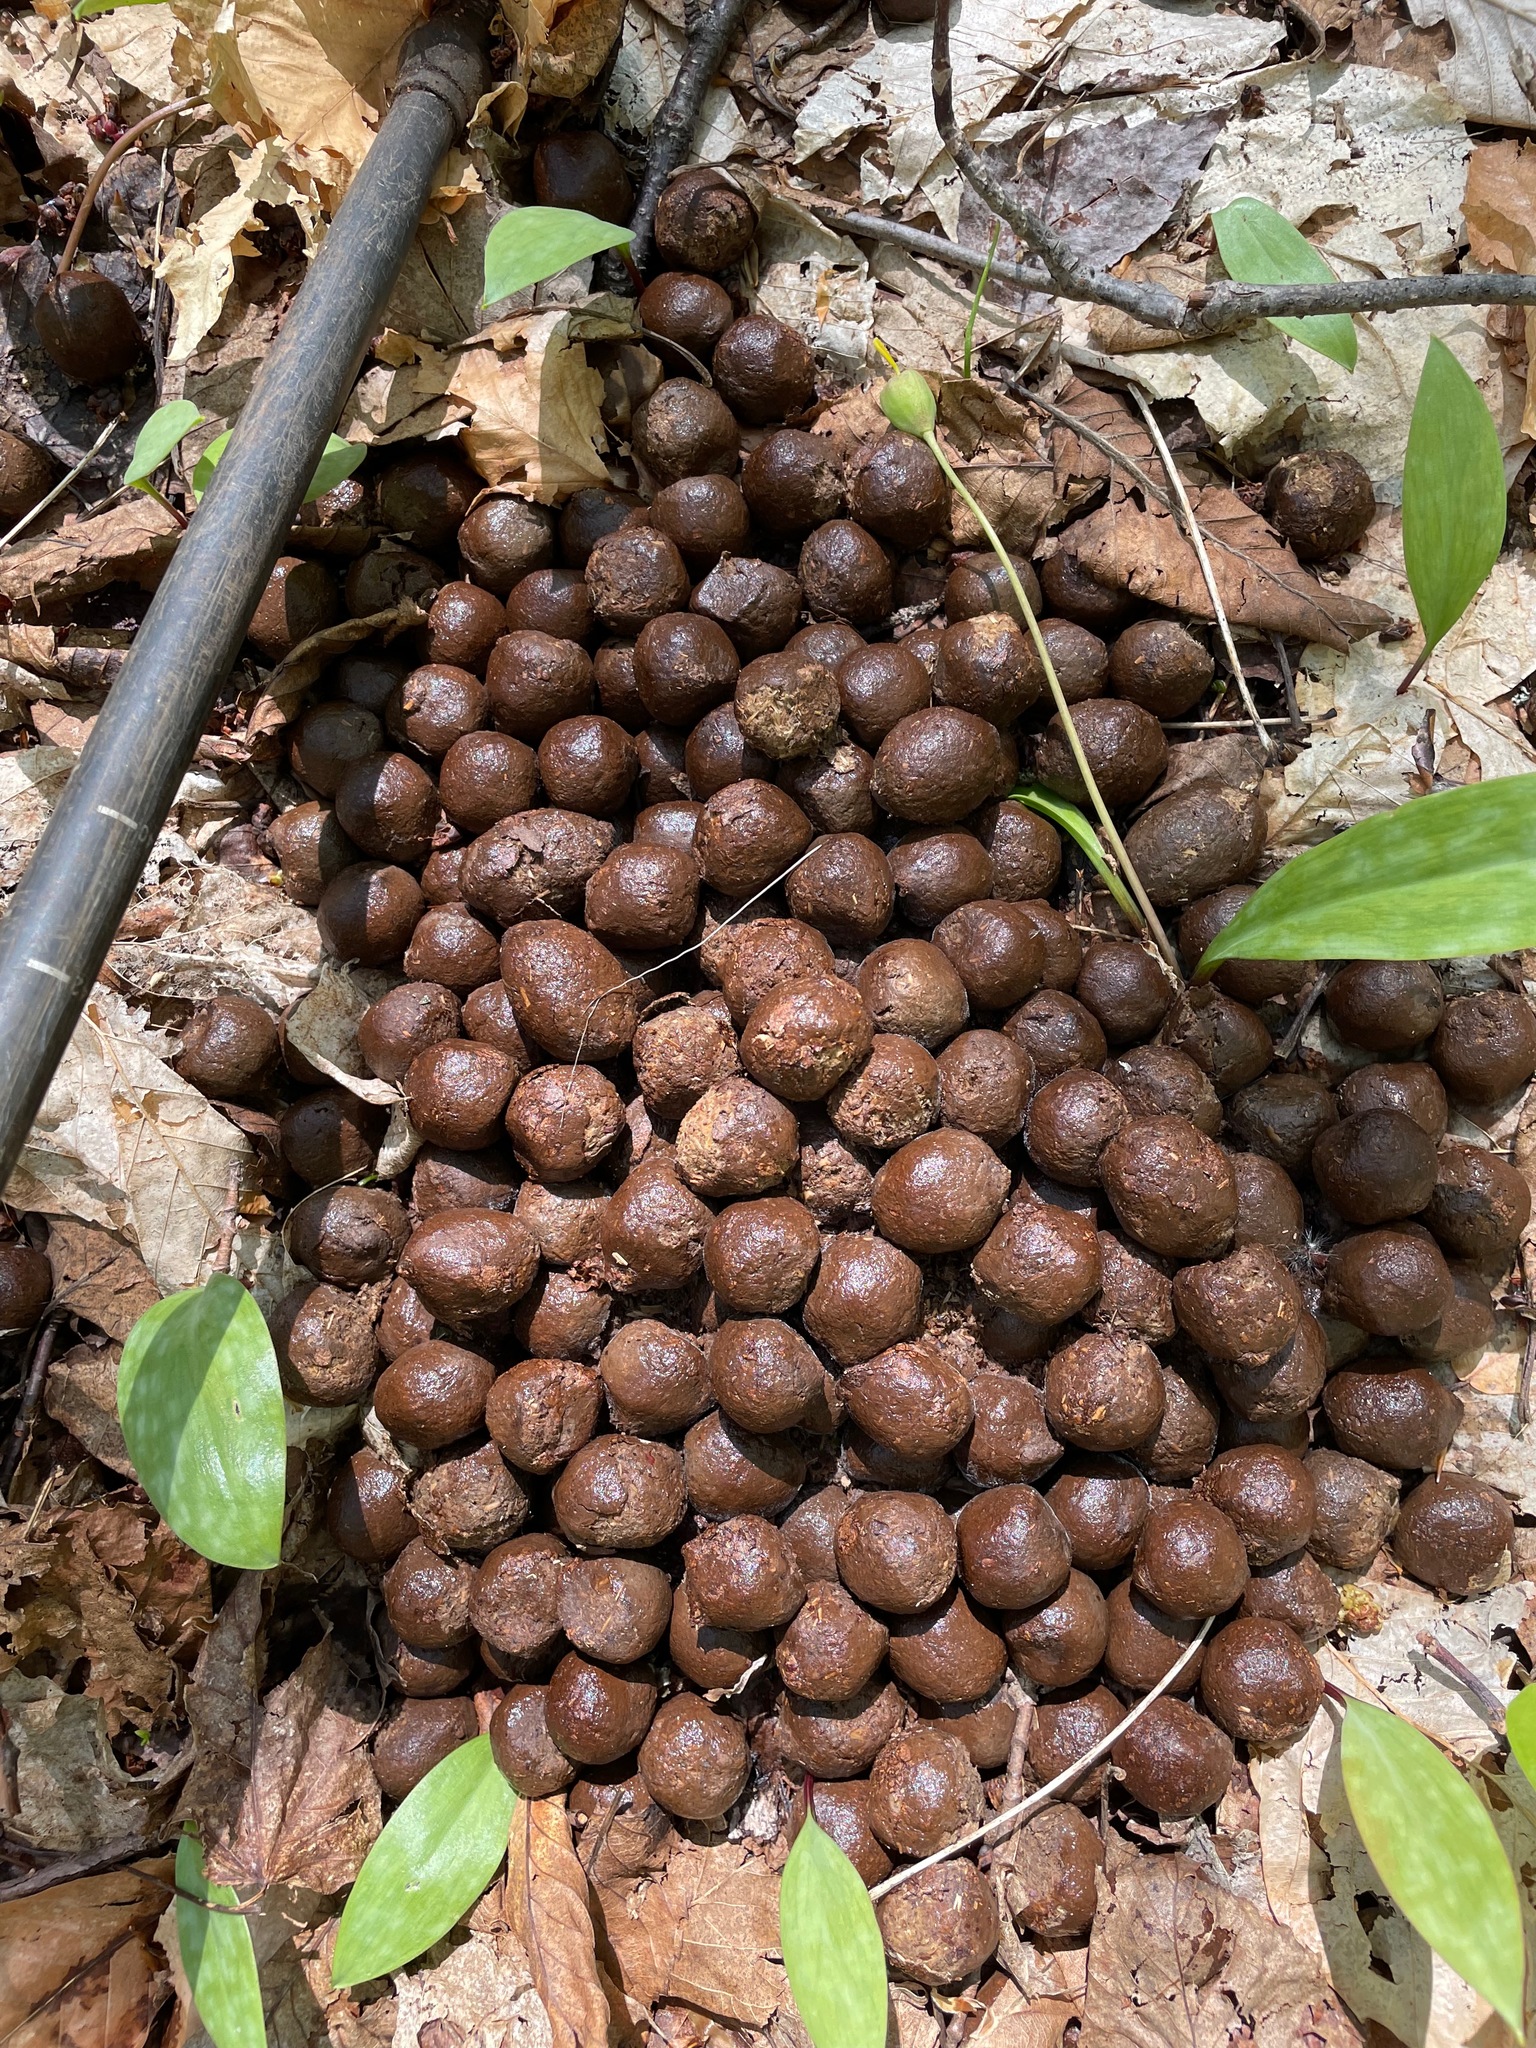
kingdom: Animalia
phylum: Chordata
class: Mammalia
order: Artiodactyla
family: Cervidae
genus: Alces
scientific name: Alces alces
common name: Moose
